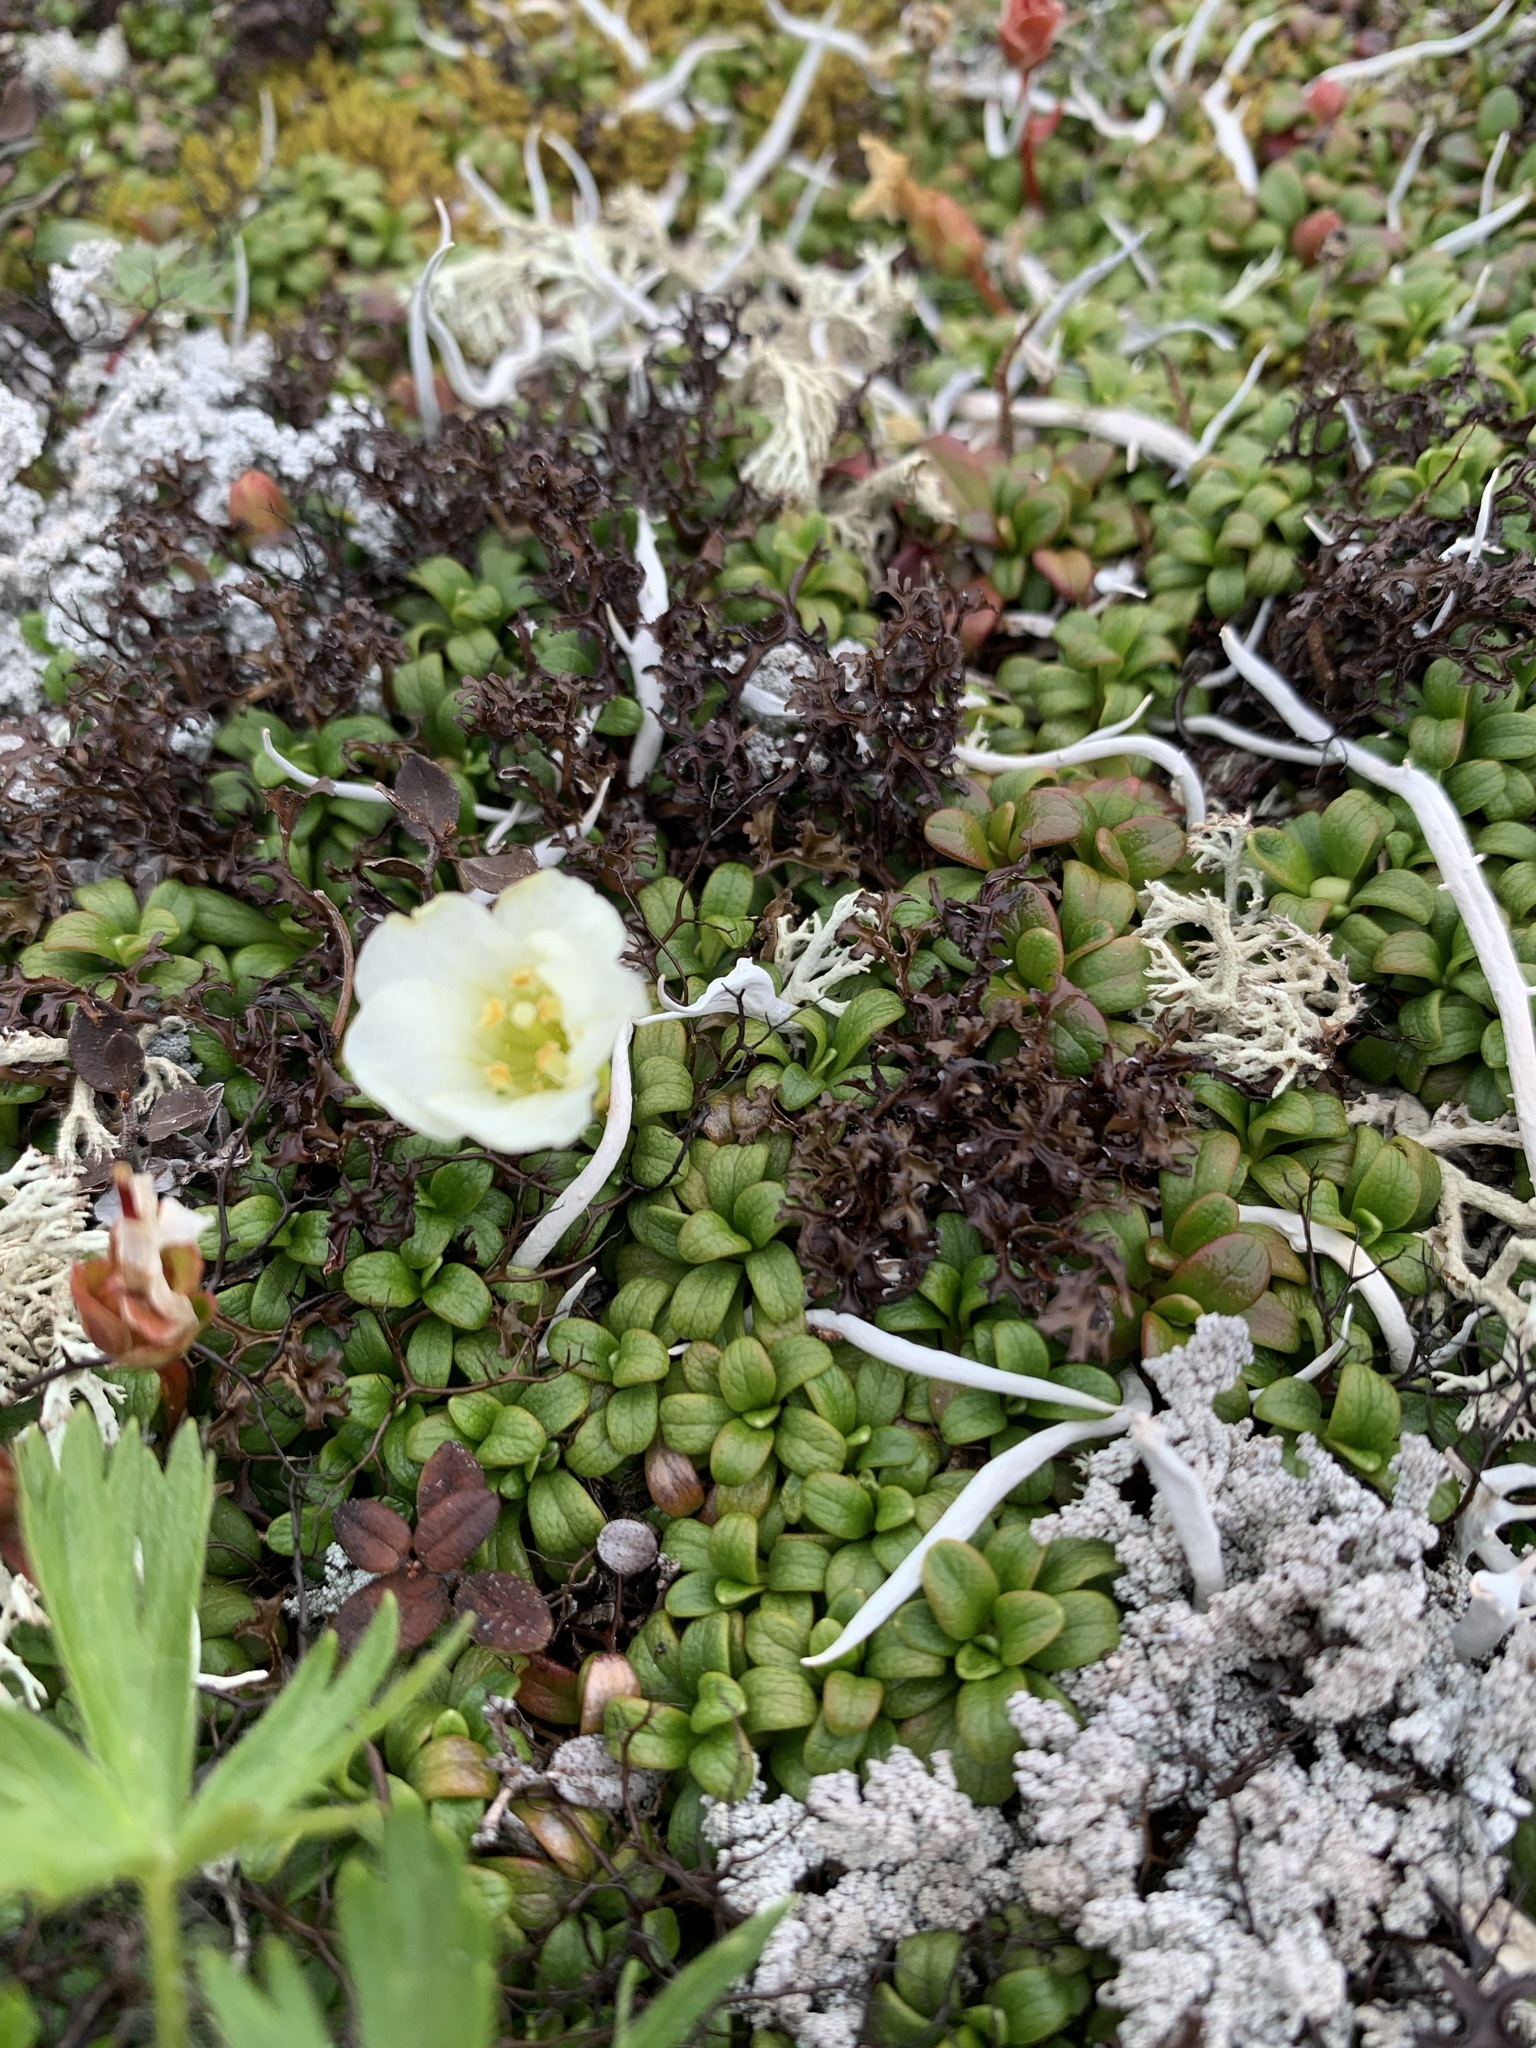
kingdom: Plantae
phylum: Tracheophyta
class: Magnoliopsida
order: Ericales
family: Diapensiaceae
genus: Diapensia
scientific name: Diapensia obovata
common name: Alaska diapensia
